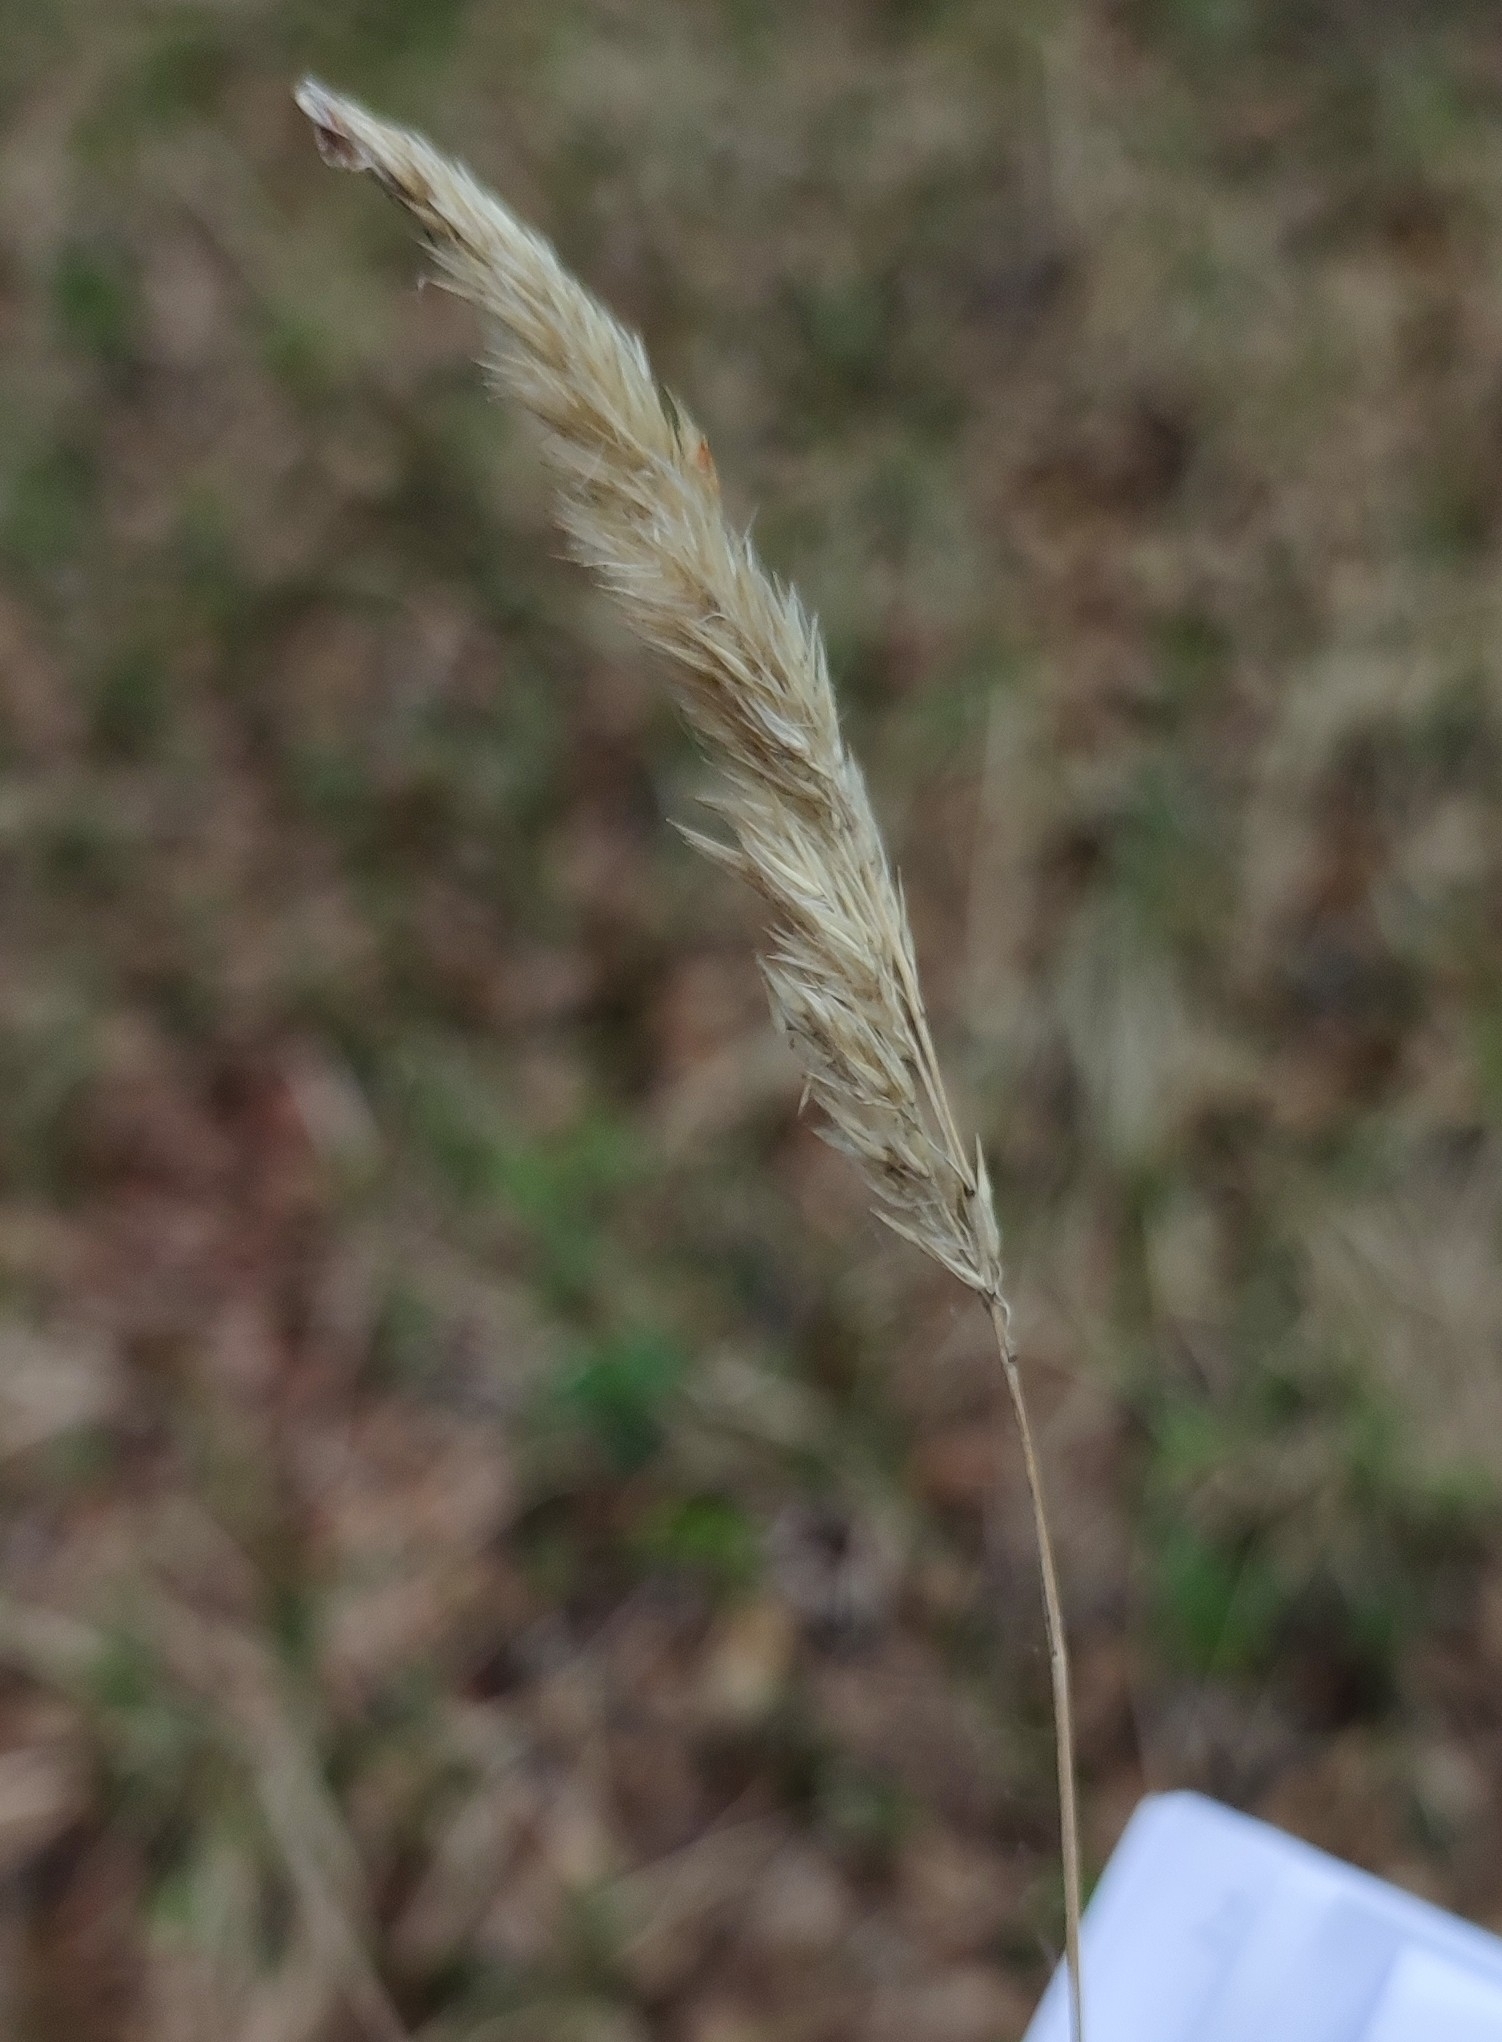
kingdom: Plantae
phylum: Tracheophyta
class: Liliopsida
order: Poales
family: Poaceae
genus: Calamagrostis
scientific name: Calamagrostis epigejos
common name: Wood small-reed
